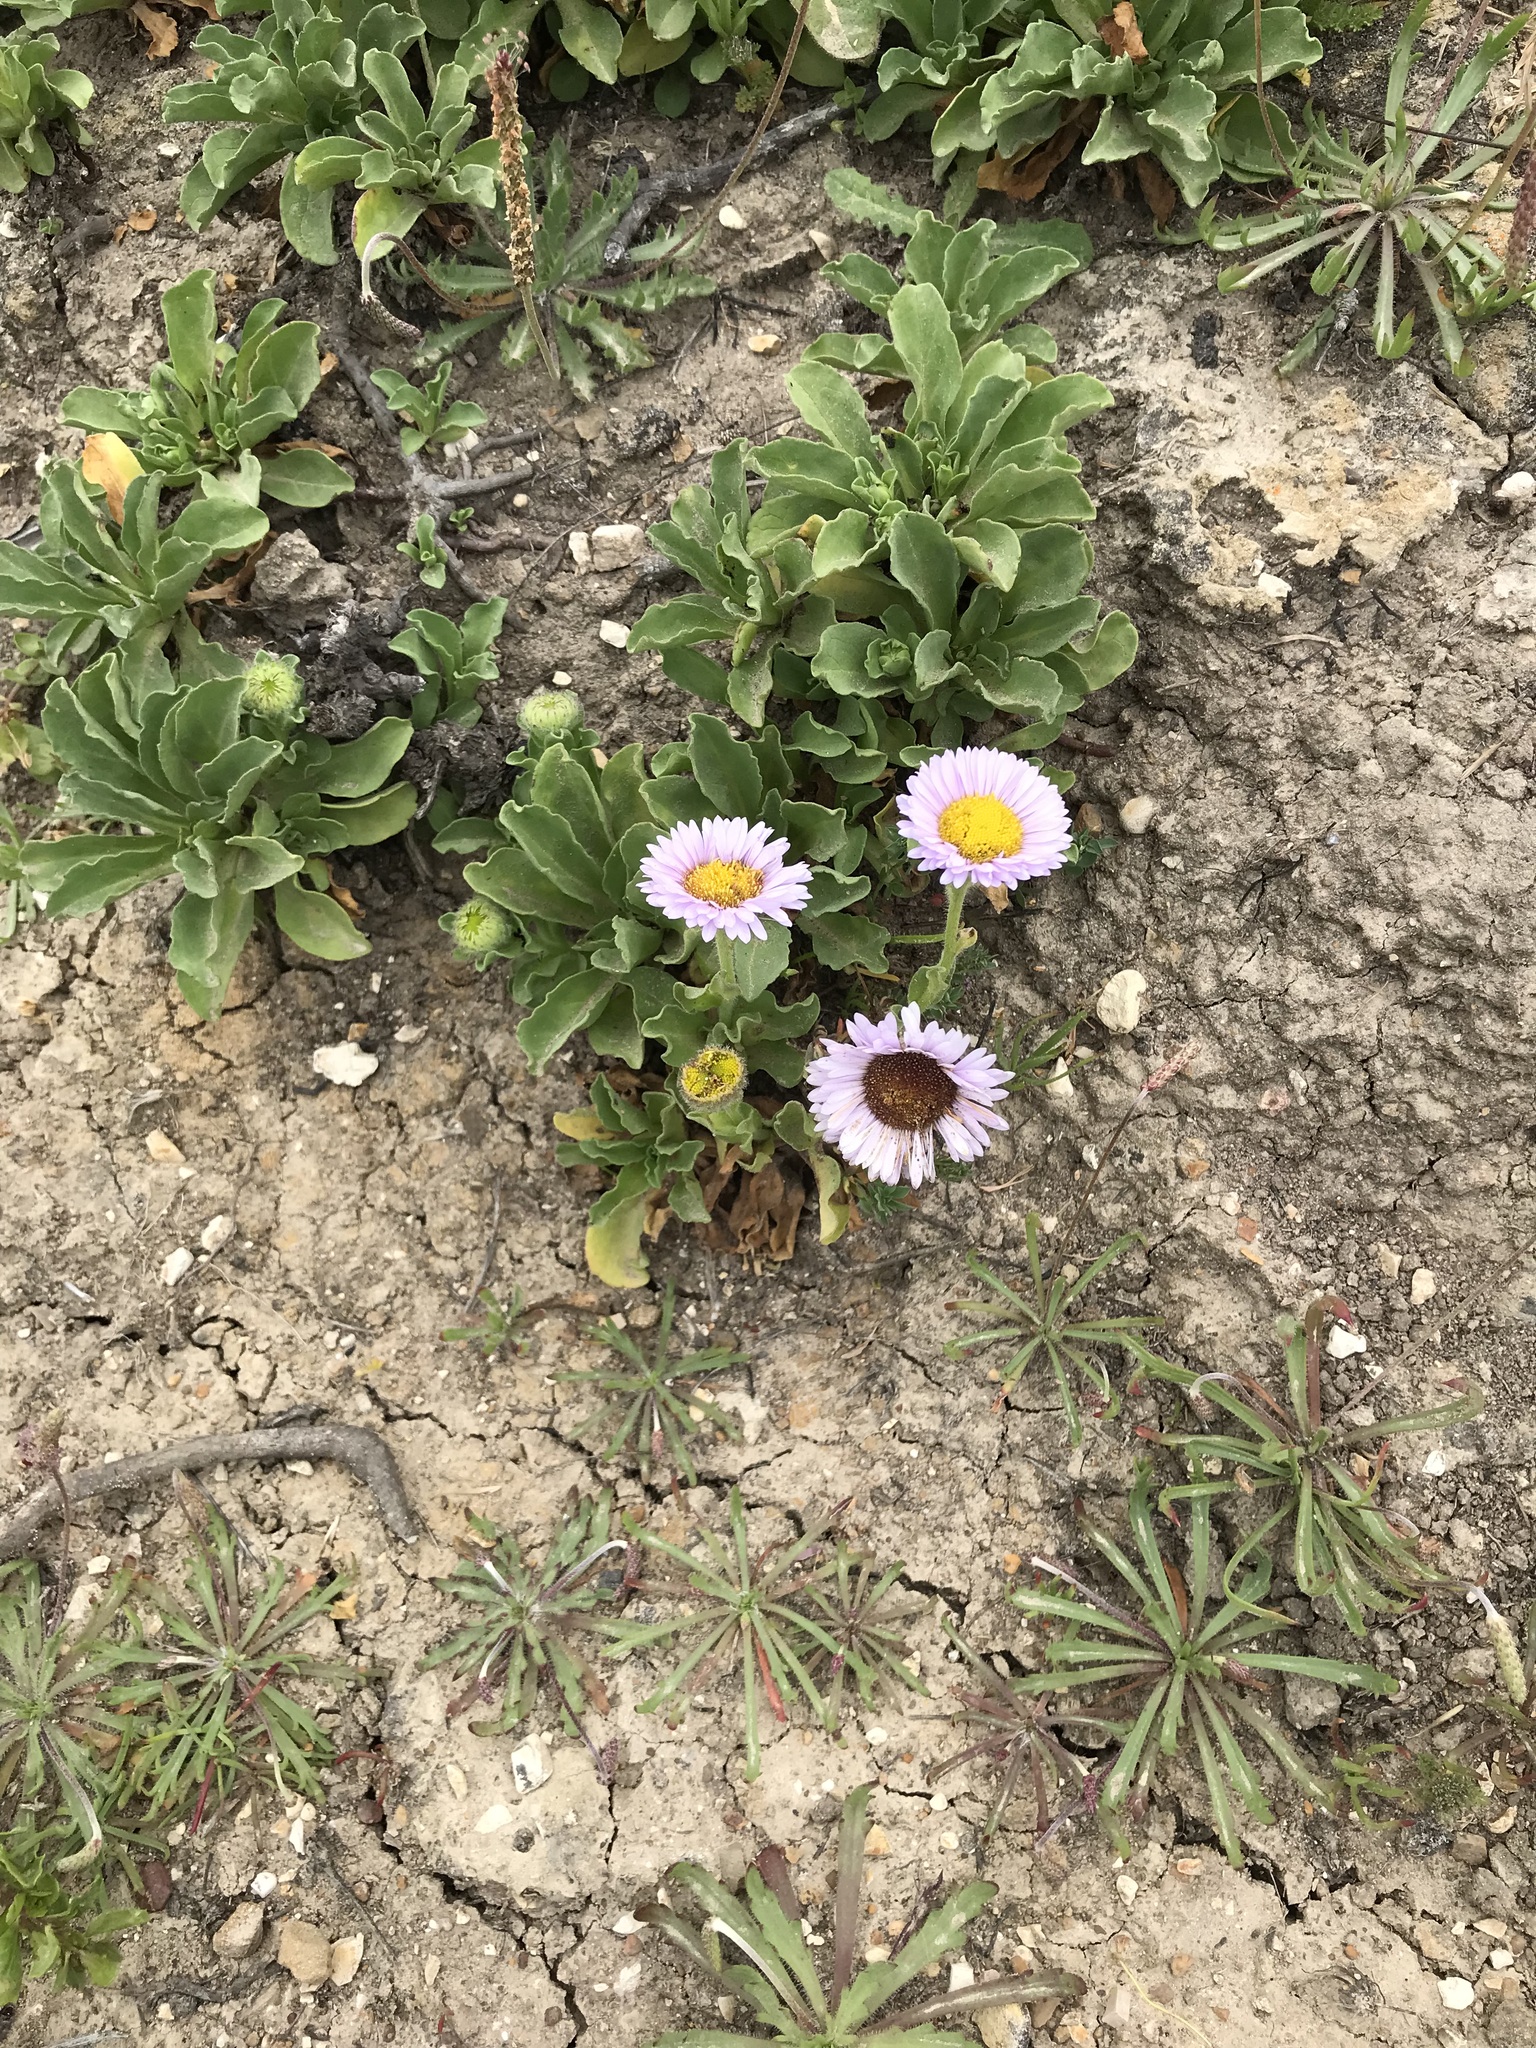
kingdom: Plantae
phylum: Tracheophyta
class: Magnoliopsida
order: Asterales
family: Asteraceae
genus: Erigeron
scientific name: Erigeron glaucus
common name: Seaside daisy
